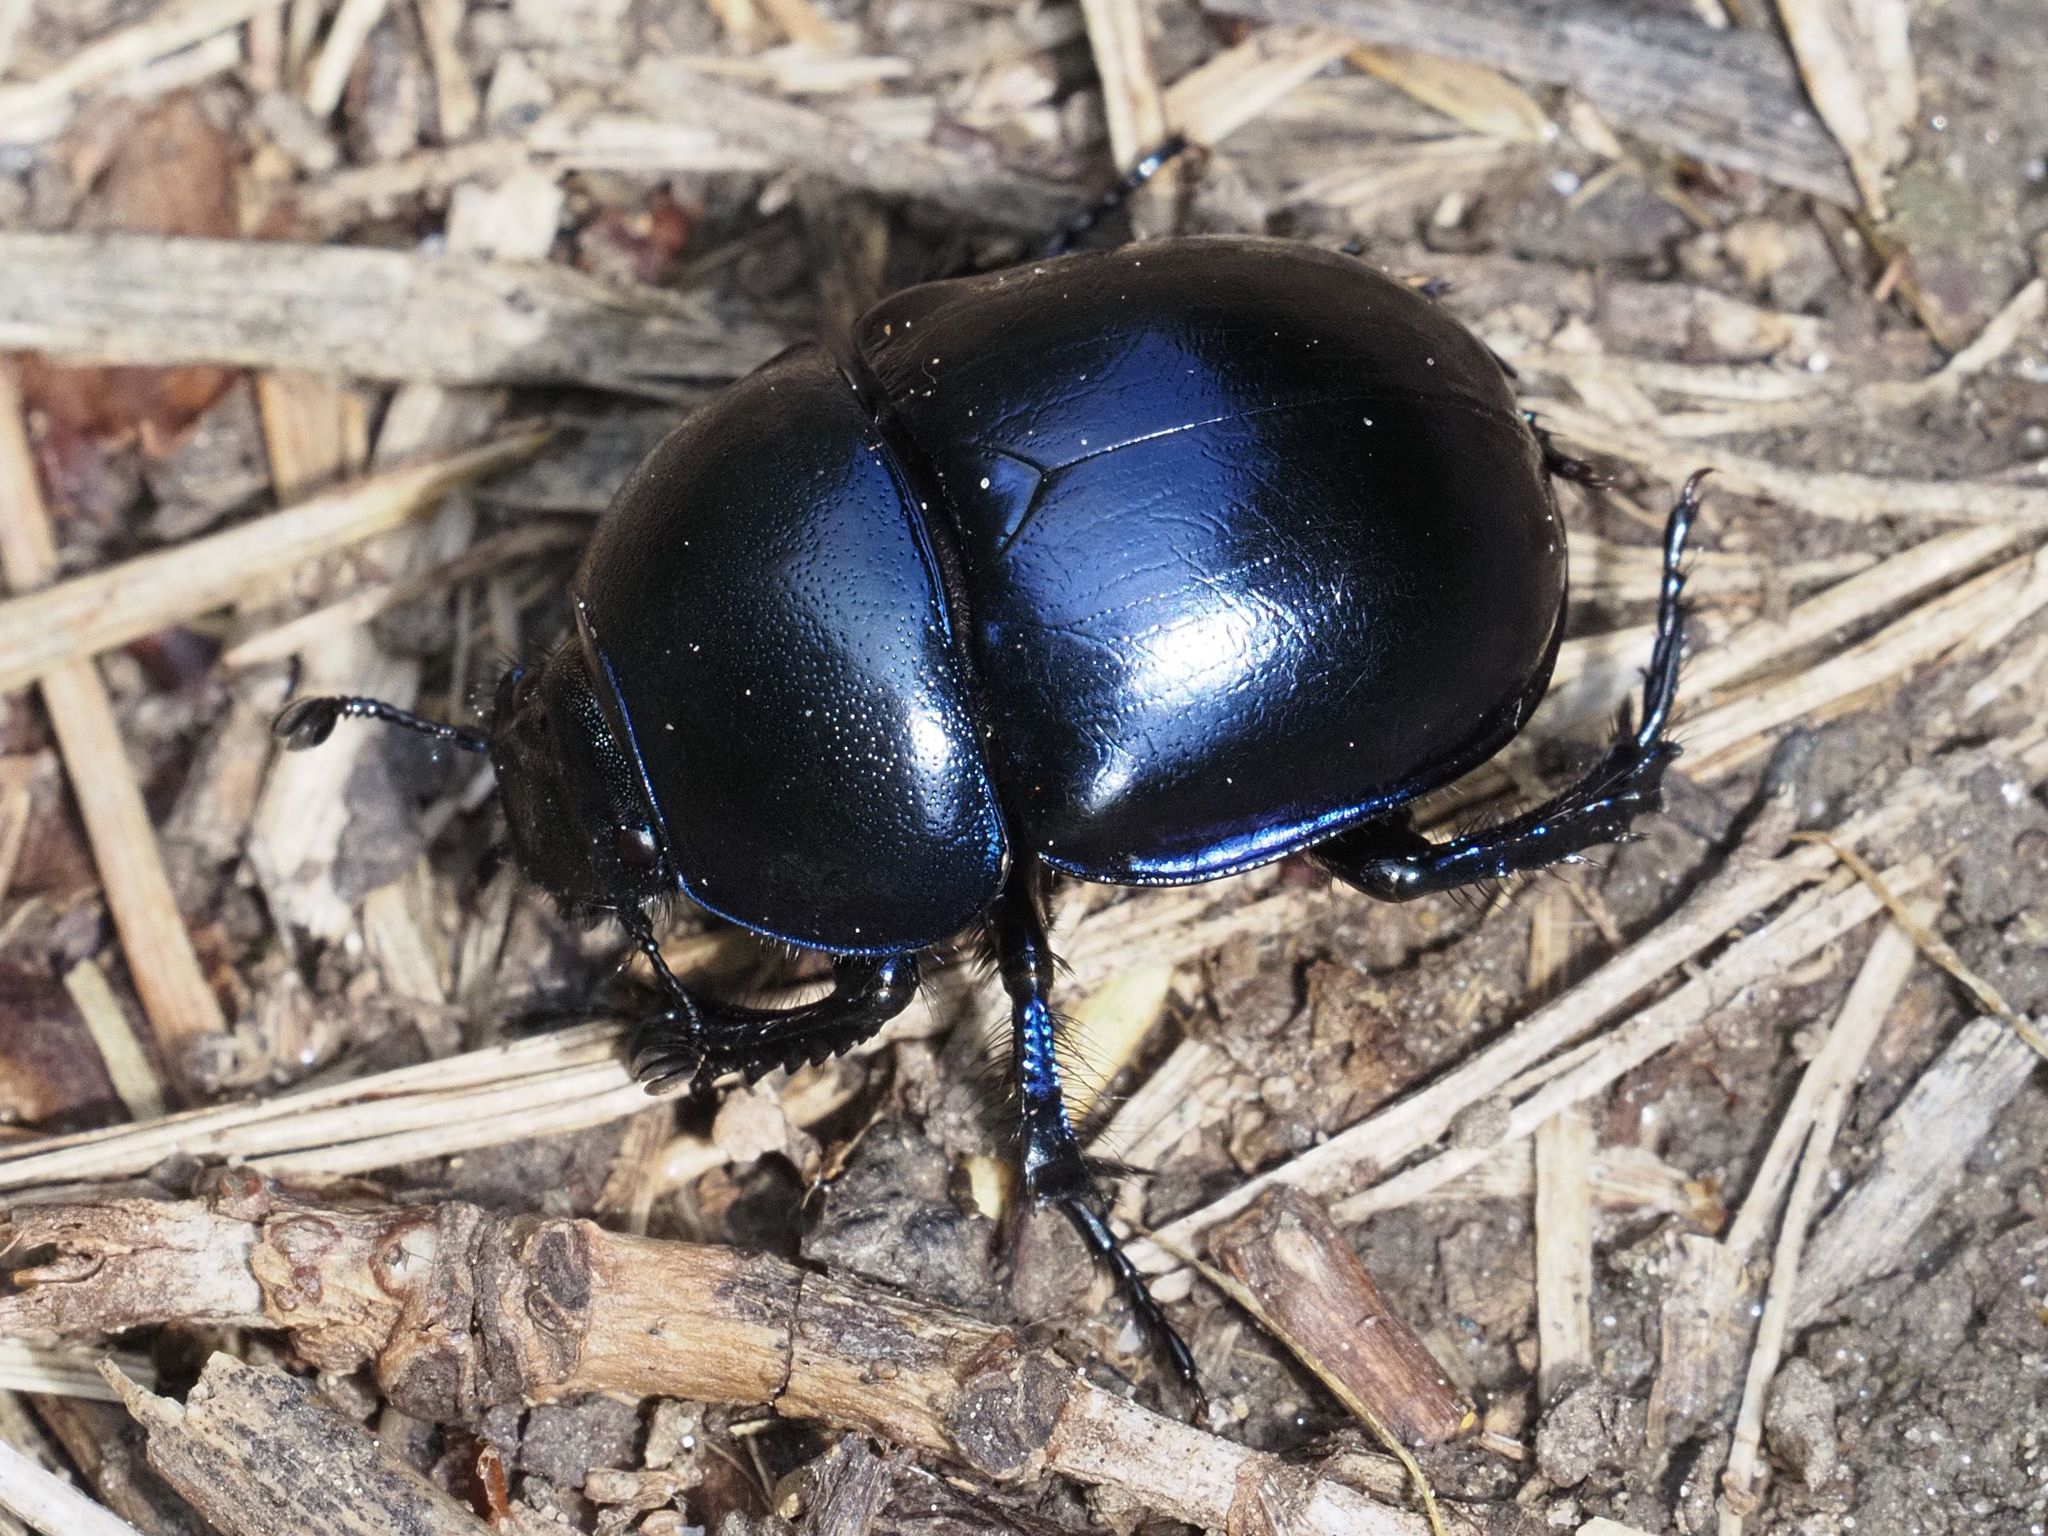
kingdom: Animalia
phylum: Arthropoda
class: Insecta
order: Coleoptera
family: Geotrupidae
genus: Trypocopris
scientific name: Trypocopris vernalis
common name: Spring dumbledor
